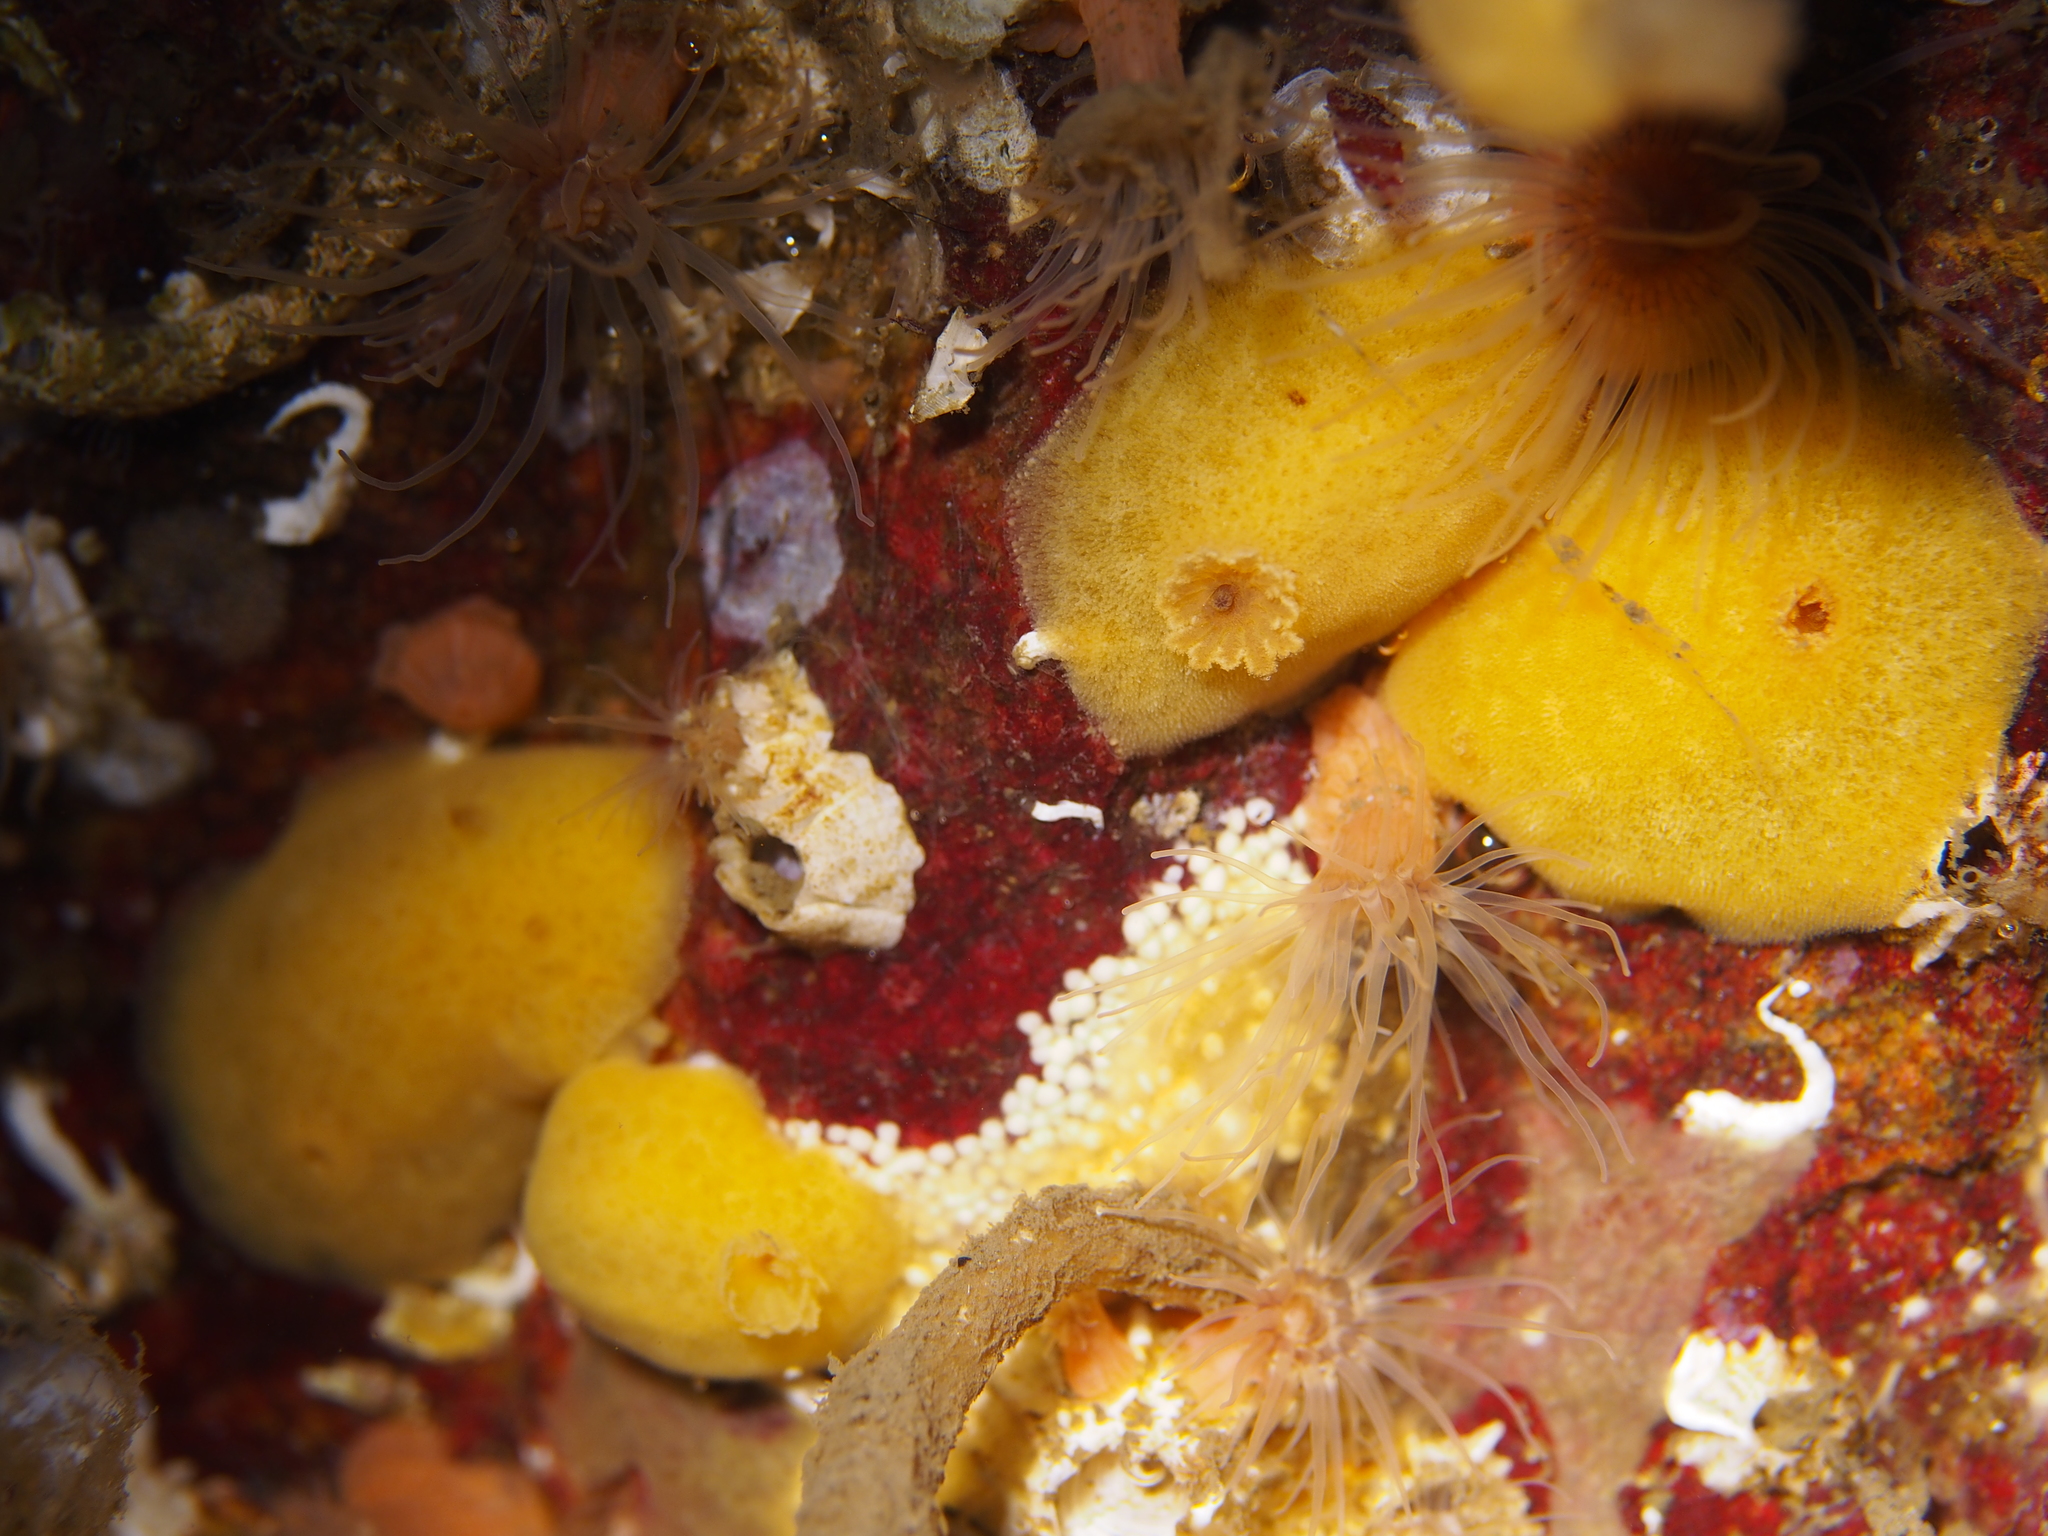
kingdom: Animalia
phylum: Mollusca
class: Gastropoda
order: Nudibranchia
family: Discodorididae
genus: Jorunna
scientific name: Jorunna tomentosa
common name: Grey sea slug
